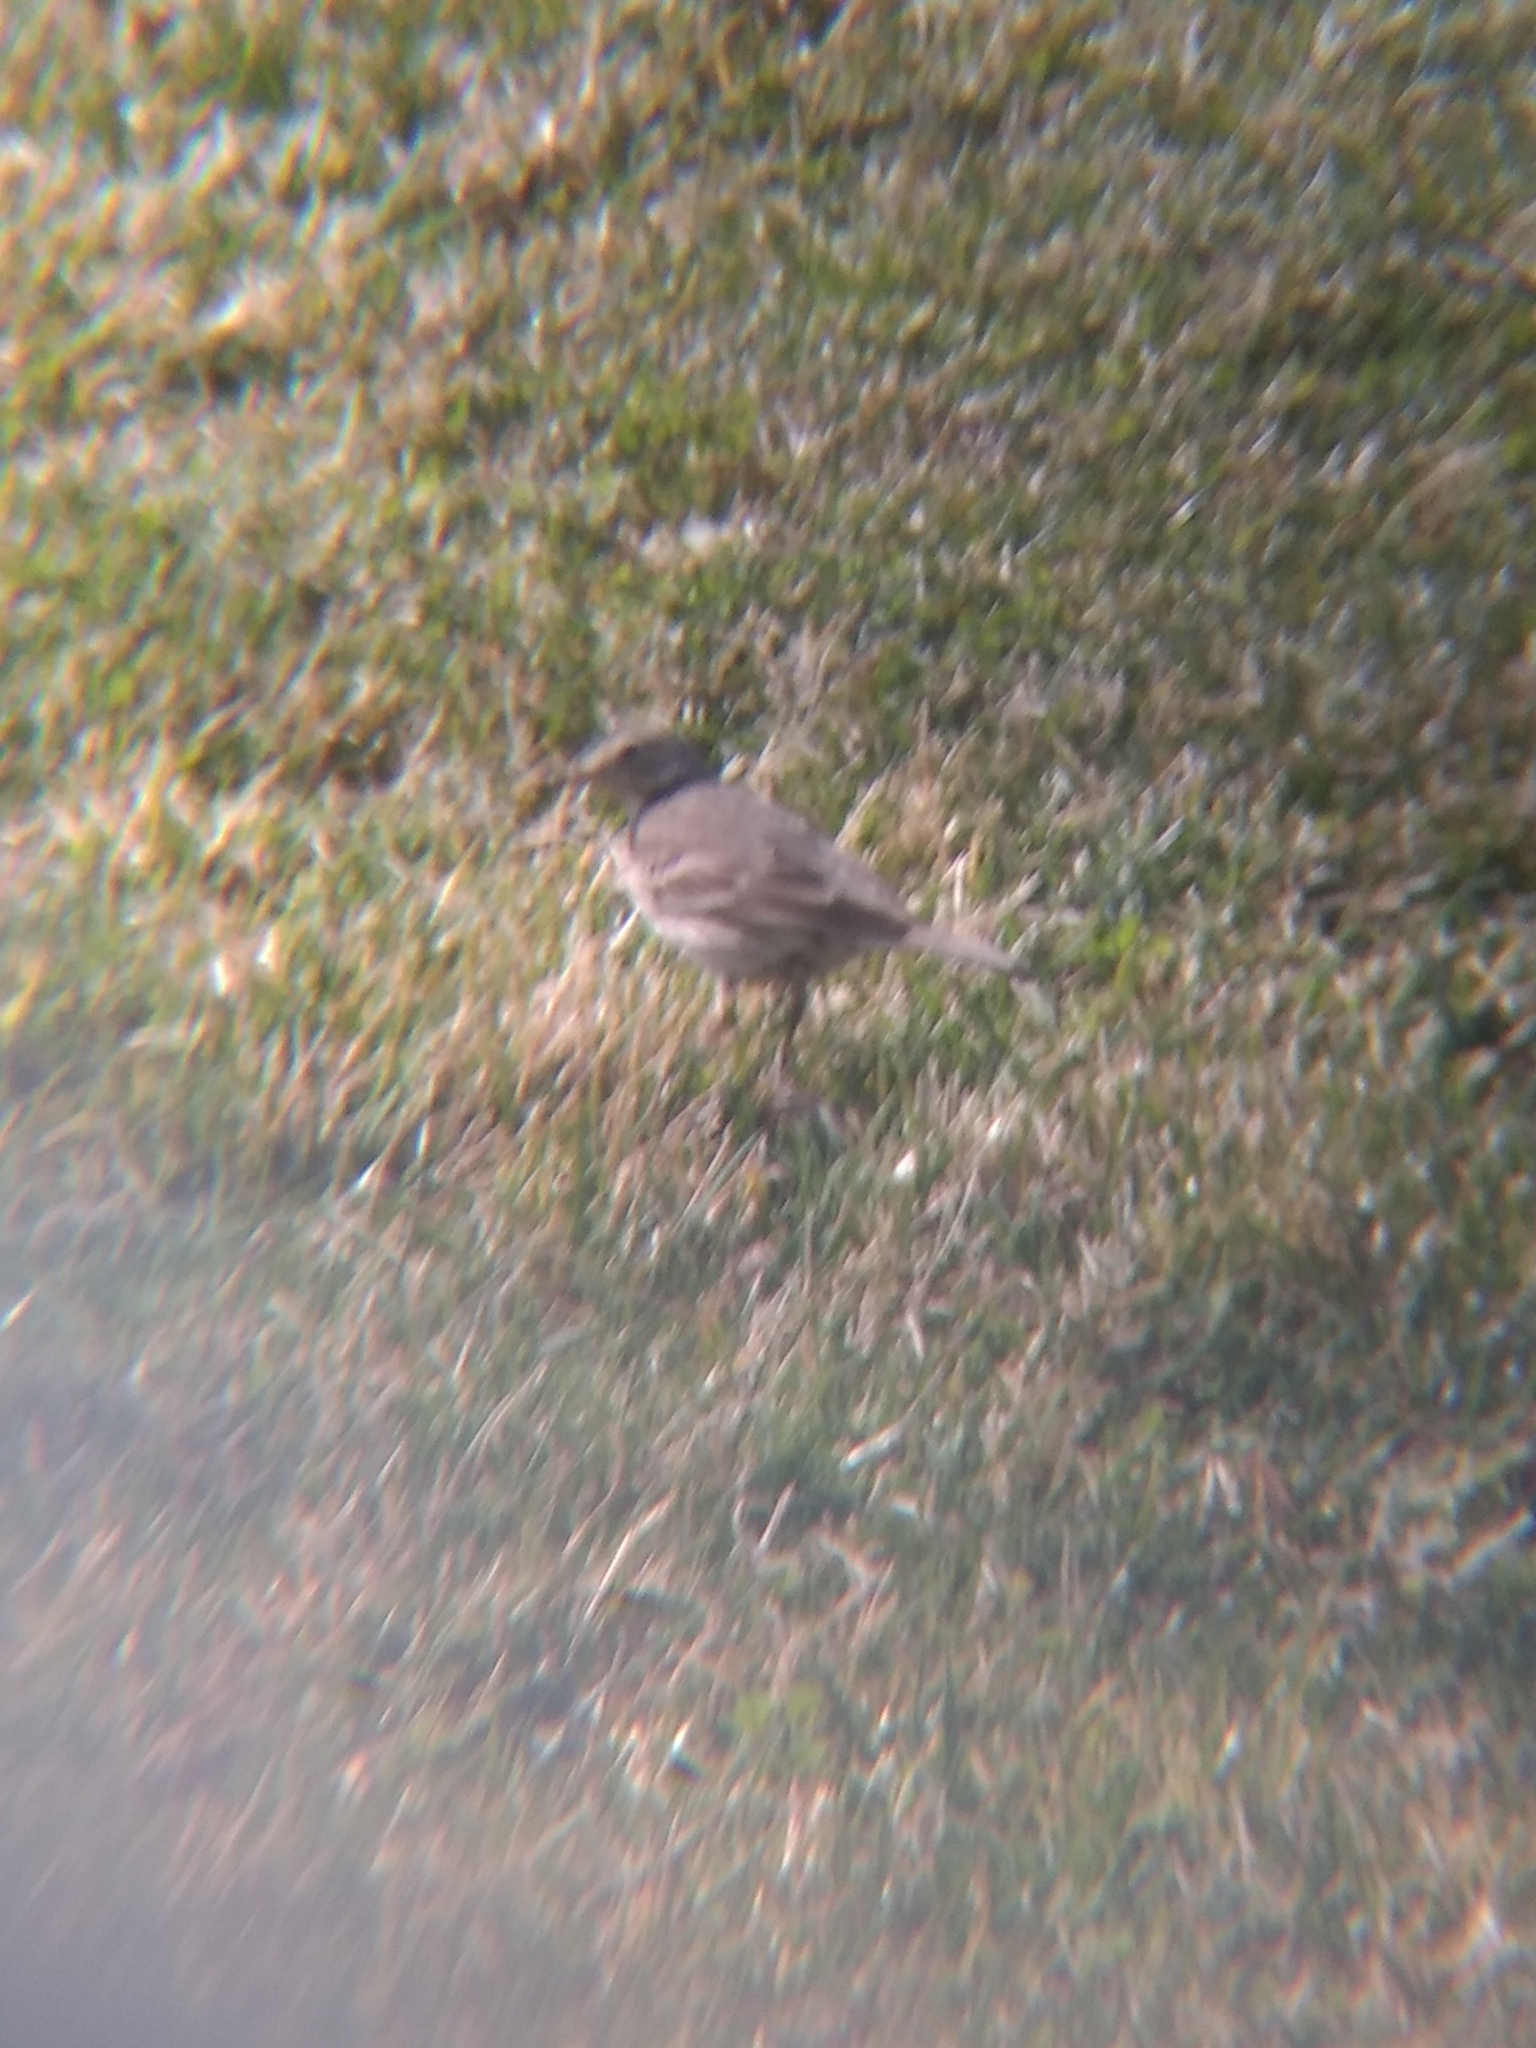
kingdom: Animalia
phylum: Chordata
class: Aves
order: Passeriformes
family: Motacillidae
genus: Anthus
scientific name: Anthus rubescens
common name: Buff-bellied pipit
